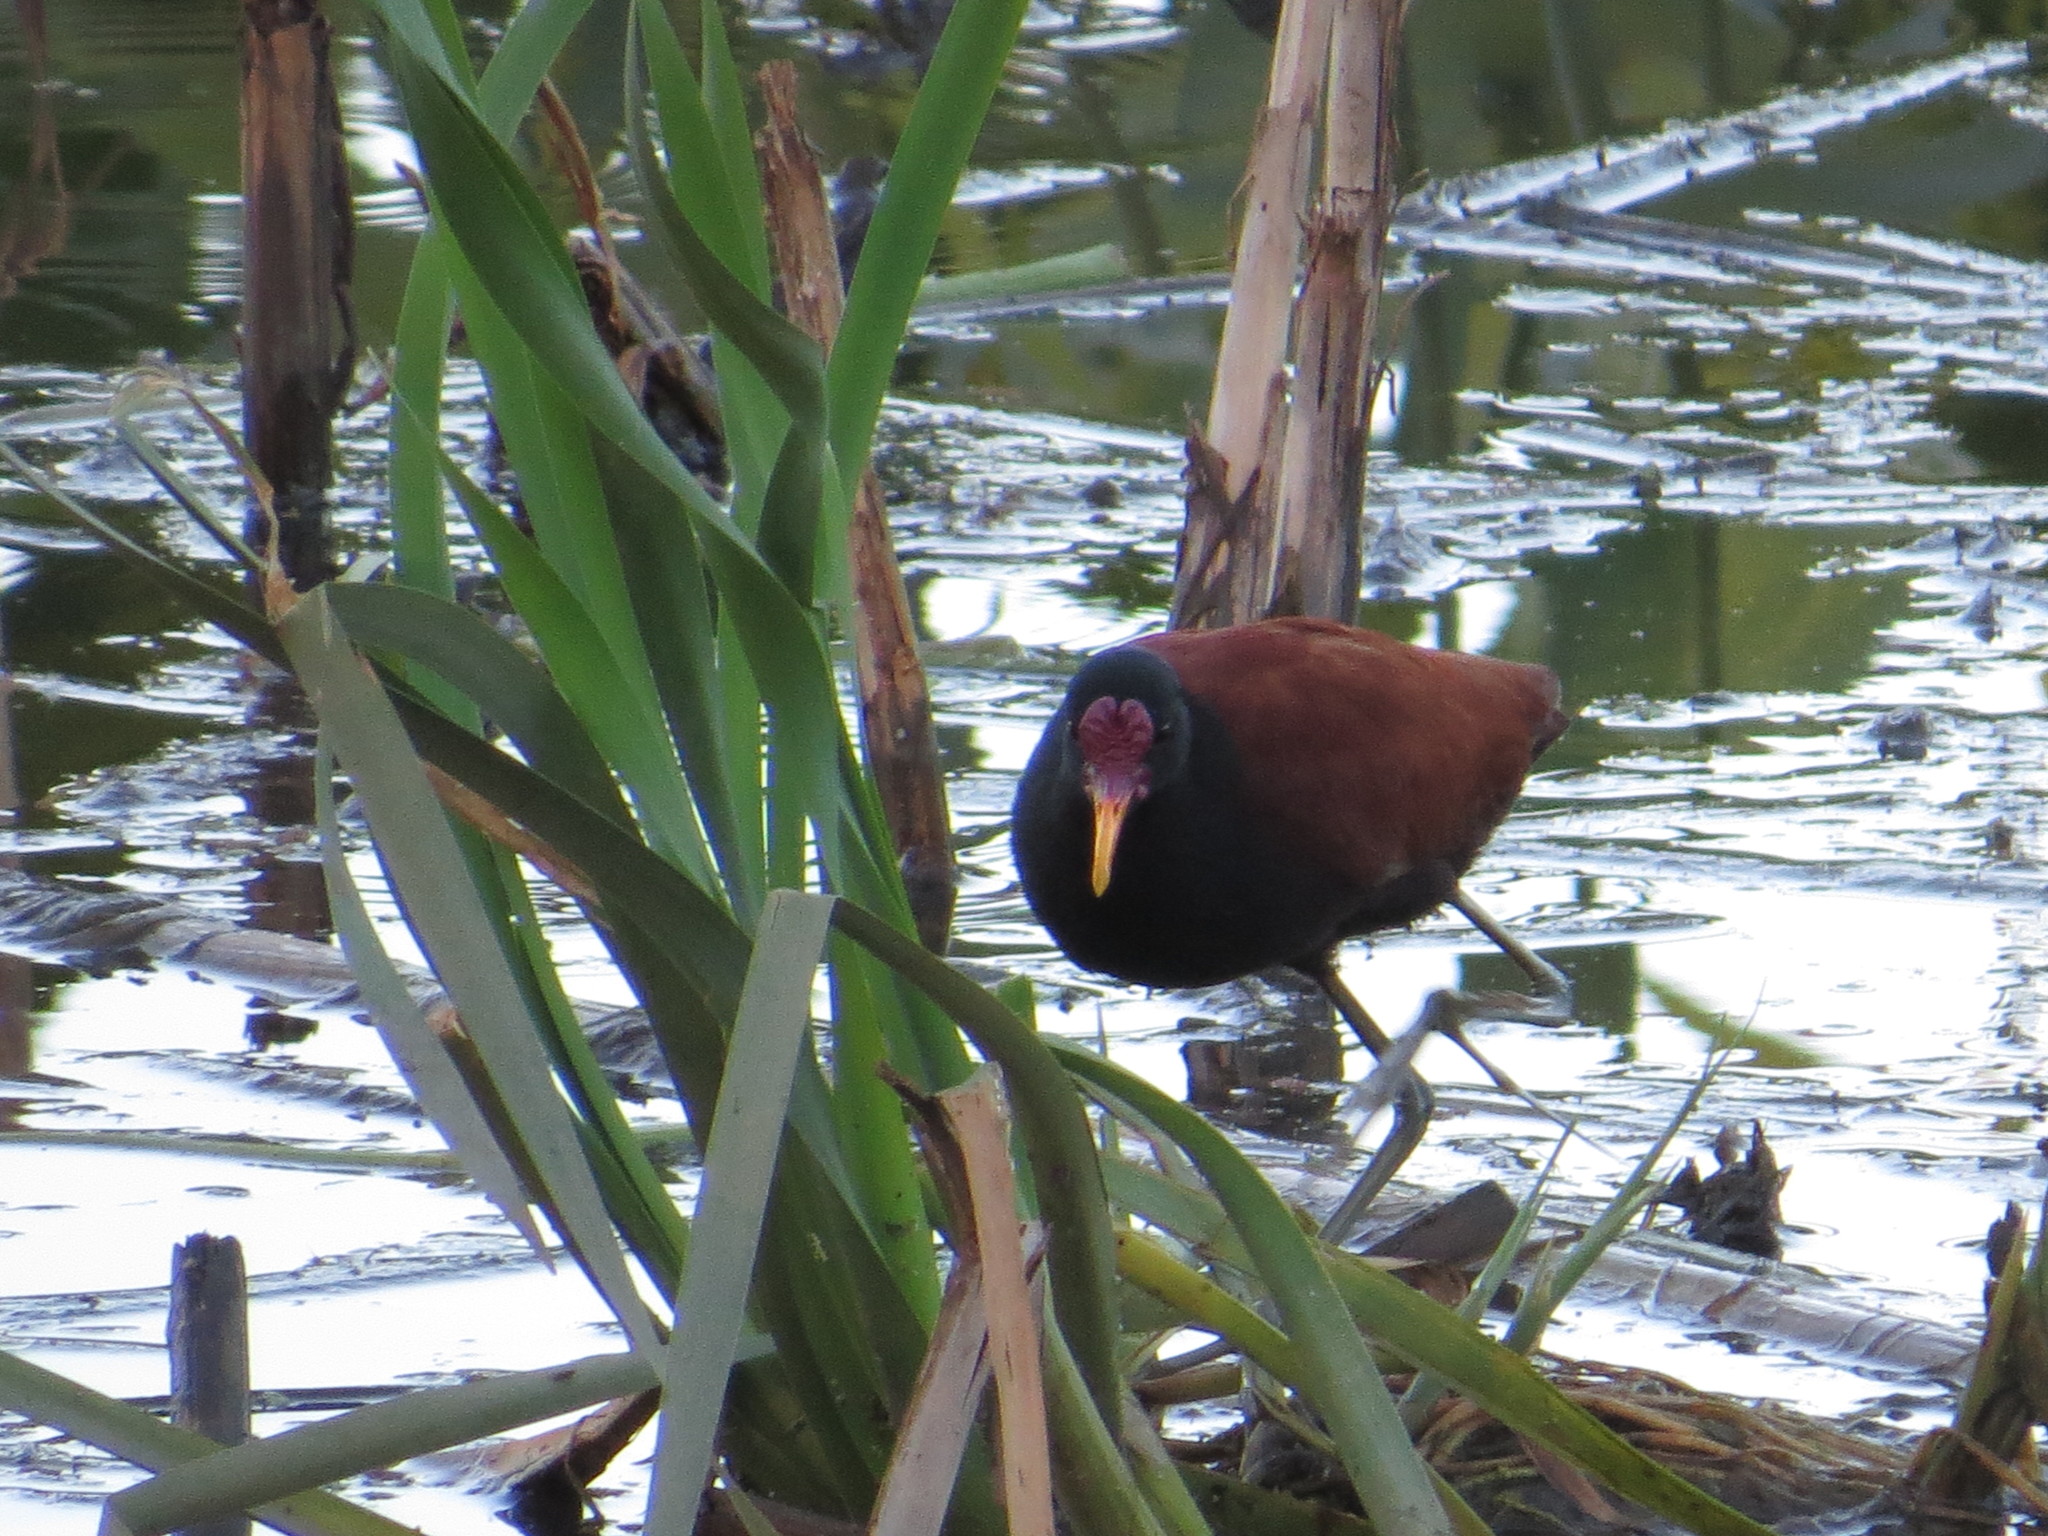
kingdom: Animalia
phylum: Chordata
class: Aves
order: Charadriiformes
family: Jacanidae
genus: Jacana
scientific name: Jacana jacana
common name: Wattled jacana
